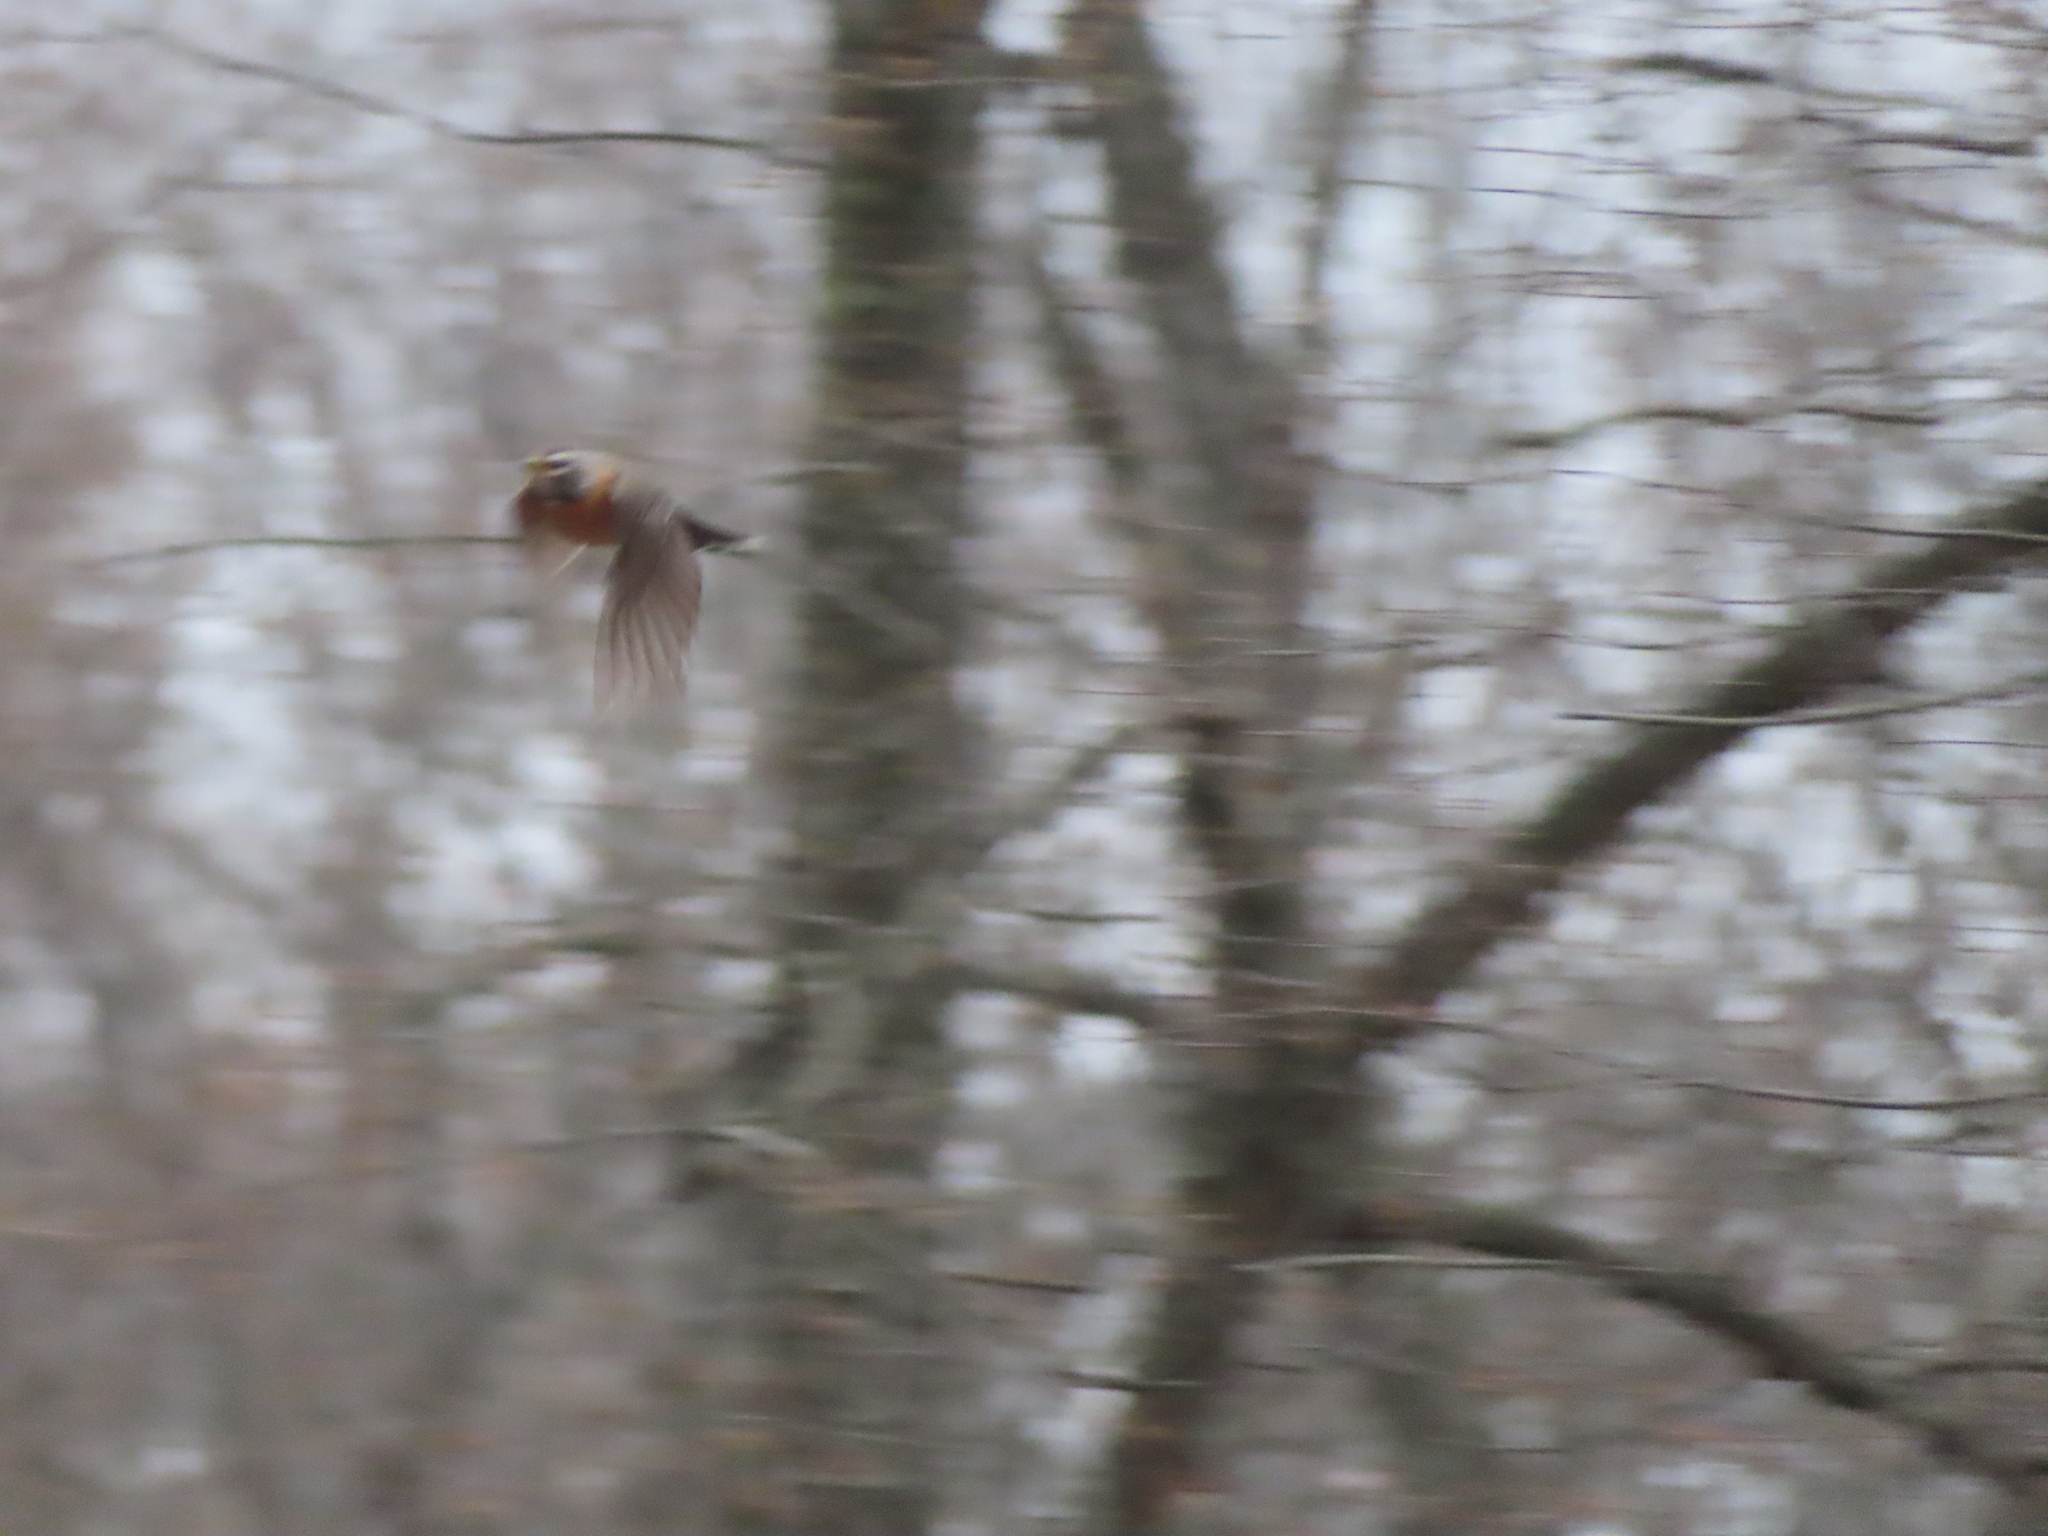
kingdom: Animalia
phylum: Chordata
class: Aves
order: Passeriformes
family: Turdidae
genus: Turdus
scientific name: Turdus migratorius
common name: American robin
